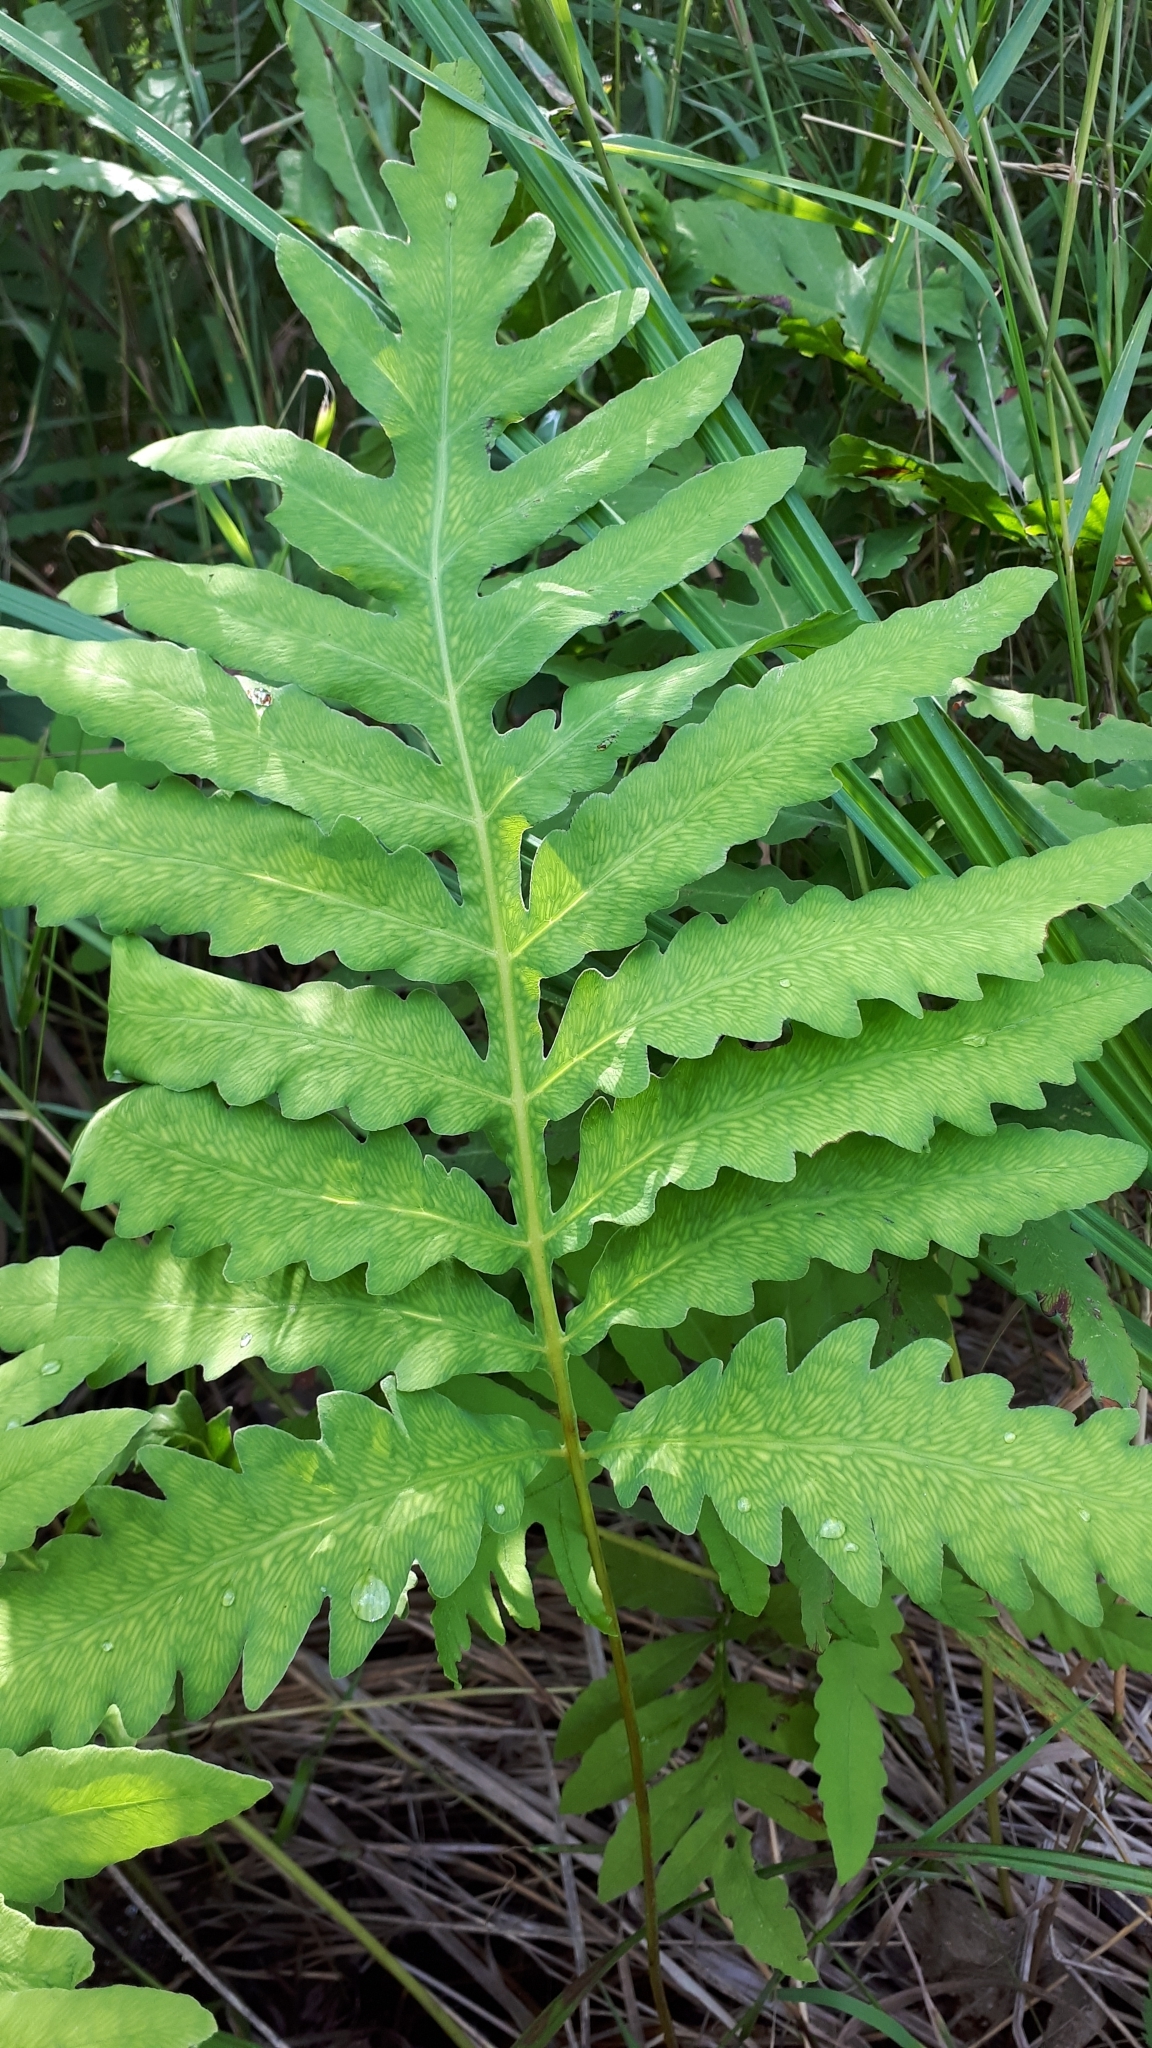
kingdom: Plantae
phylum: Tracheophyta
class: Polypodiopsida
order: Polypodiales
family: Onocleaceae
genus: Onoclea
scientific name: Onoclea sensibilis
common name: Sensitive fern
